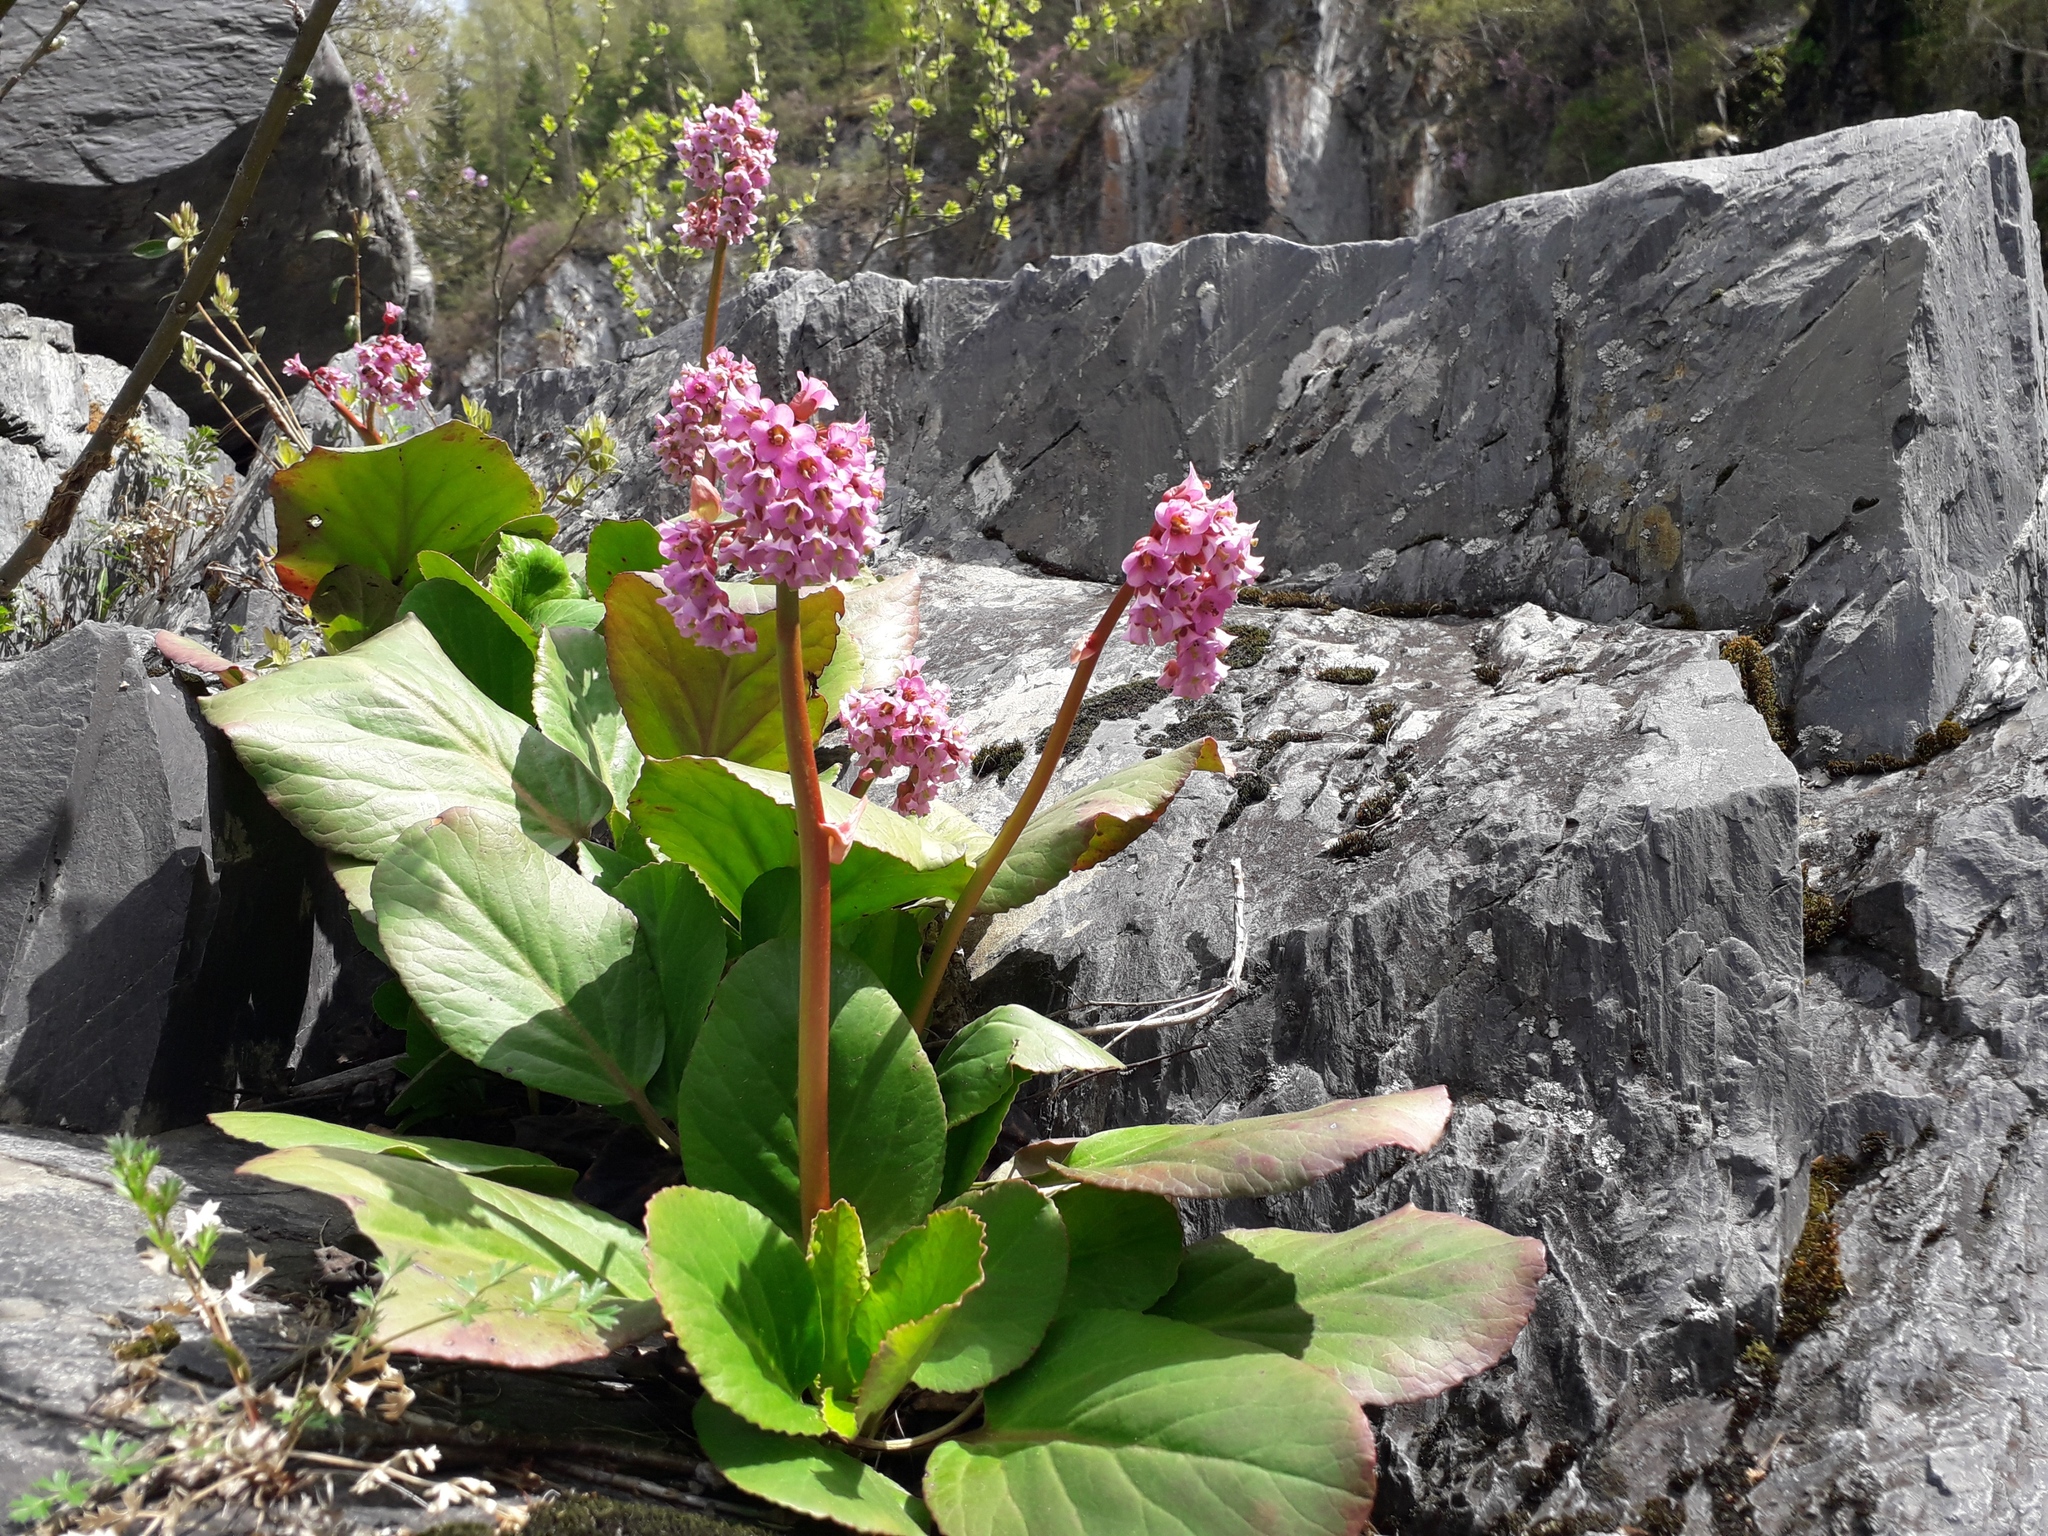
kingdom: Plantae
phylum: Tracheophyta
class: Magnoliopsida
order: Saxifragales
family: Saxifragaceae
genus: Bergenia
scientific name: Bergenia crassifolia
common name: Elephant-ears
